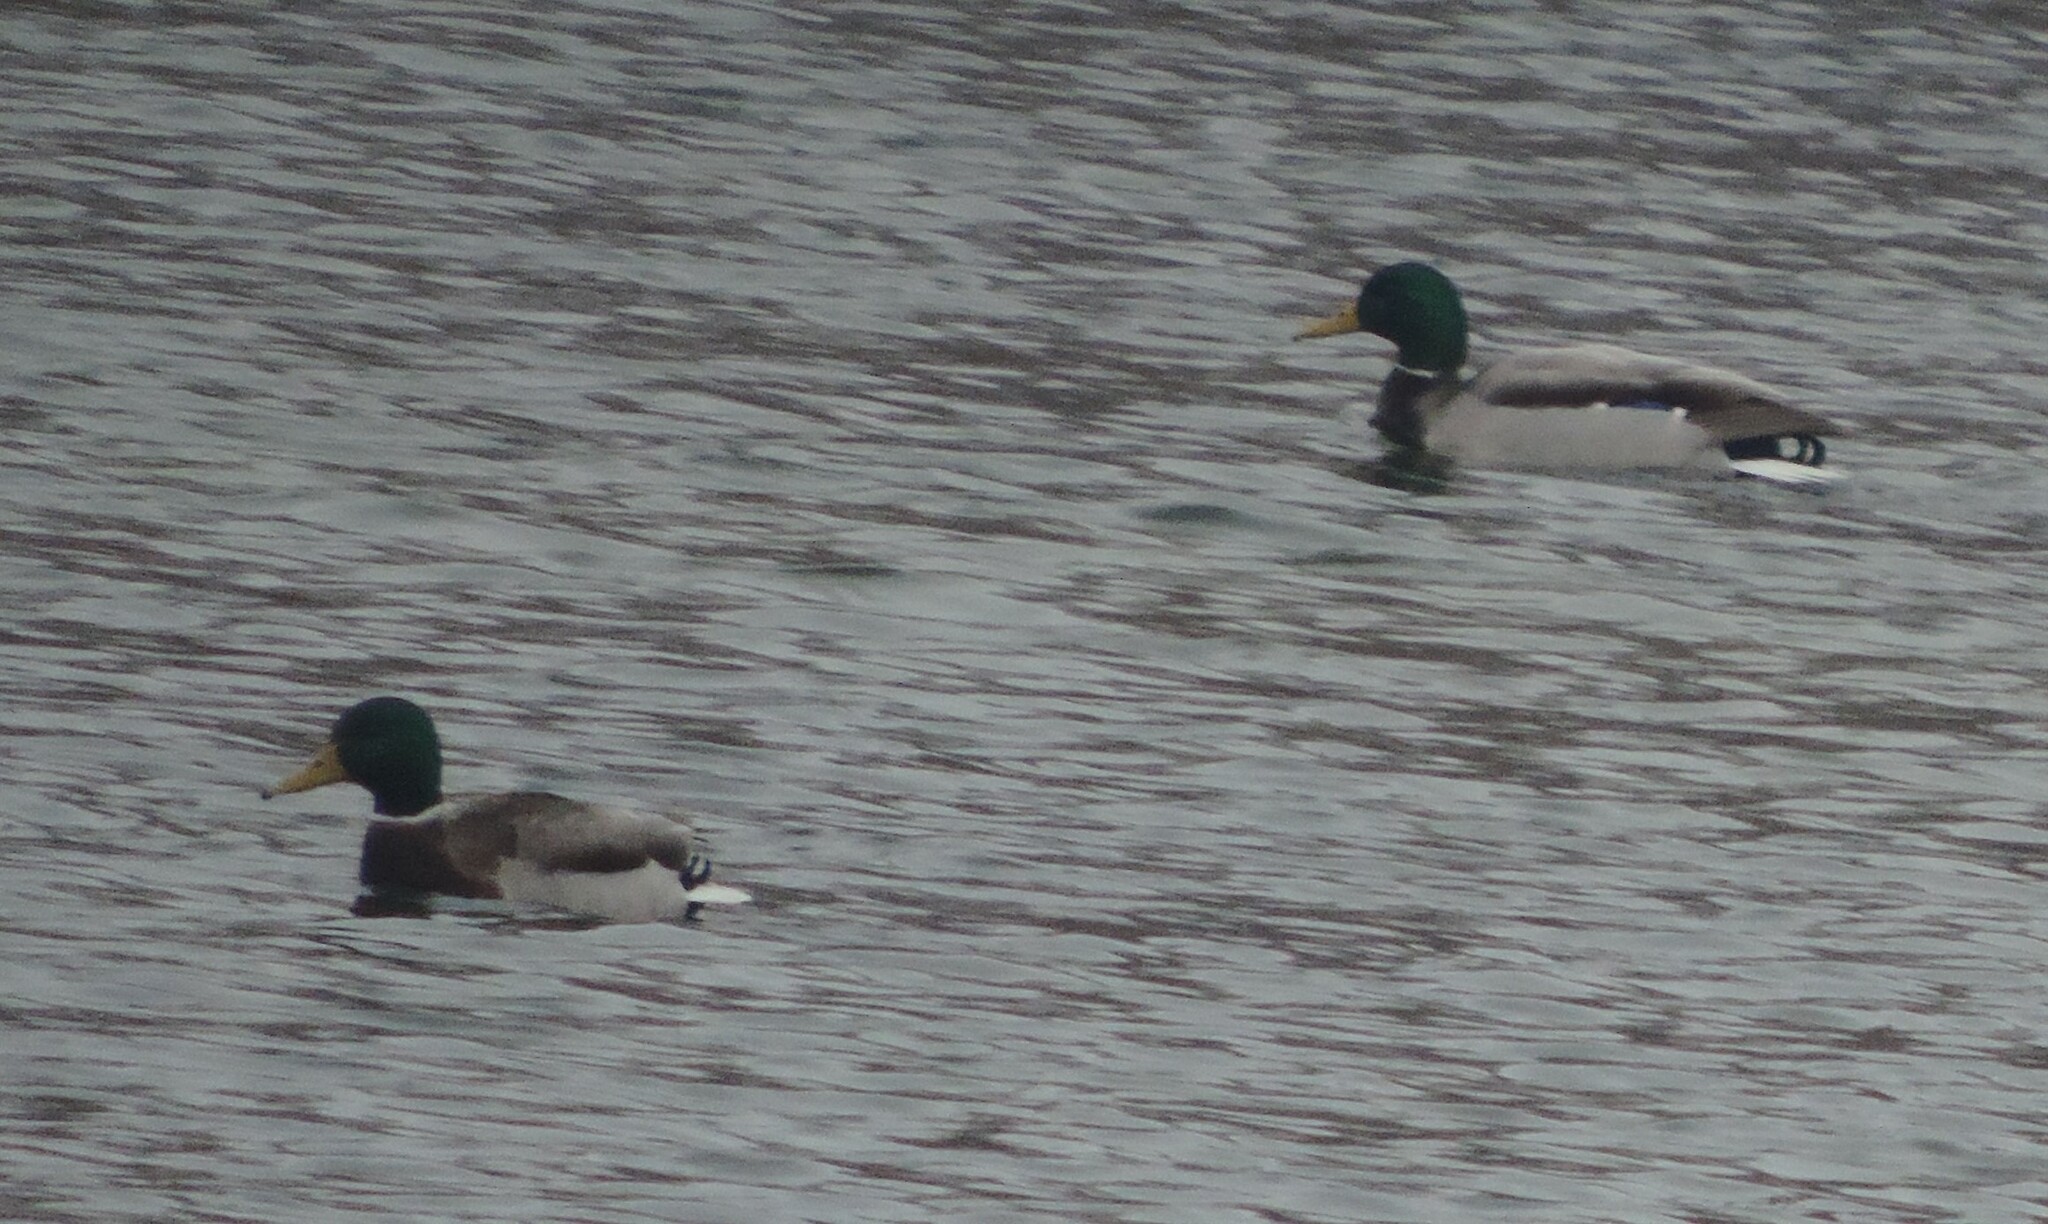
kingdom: Animalia
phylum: Chordata
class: Aves
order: Anseriformes
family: Anatidae
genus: Anas
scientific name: Anas platyrhynchos
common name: Mallard
